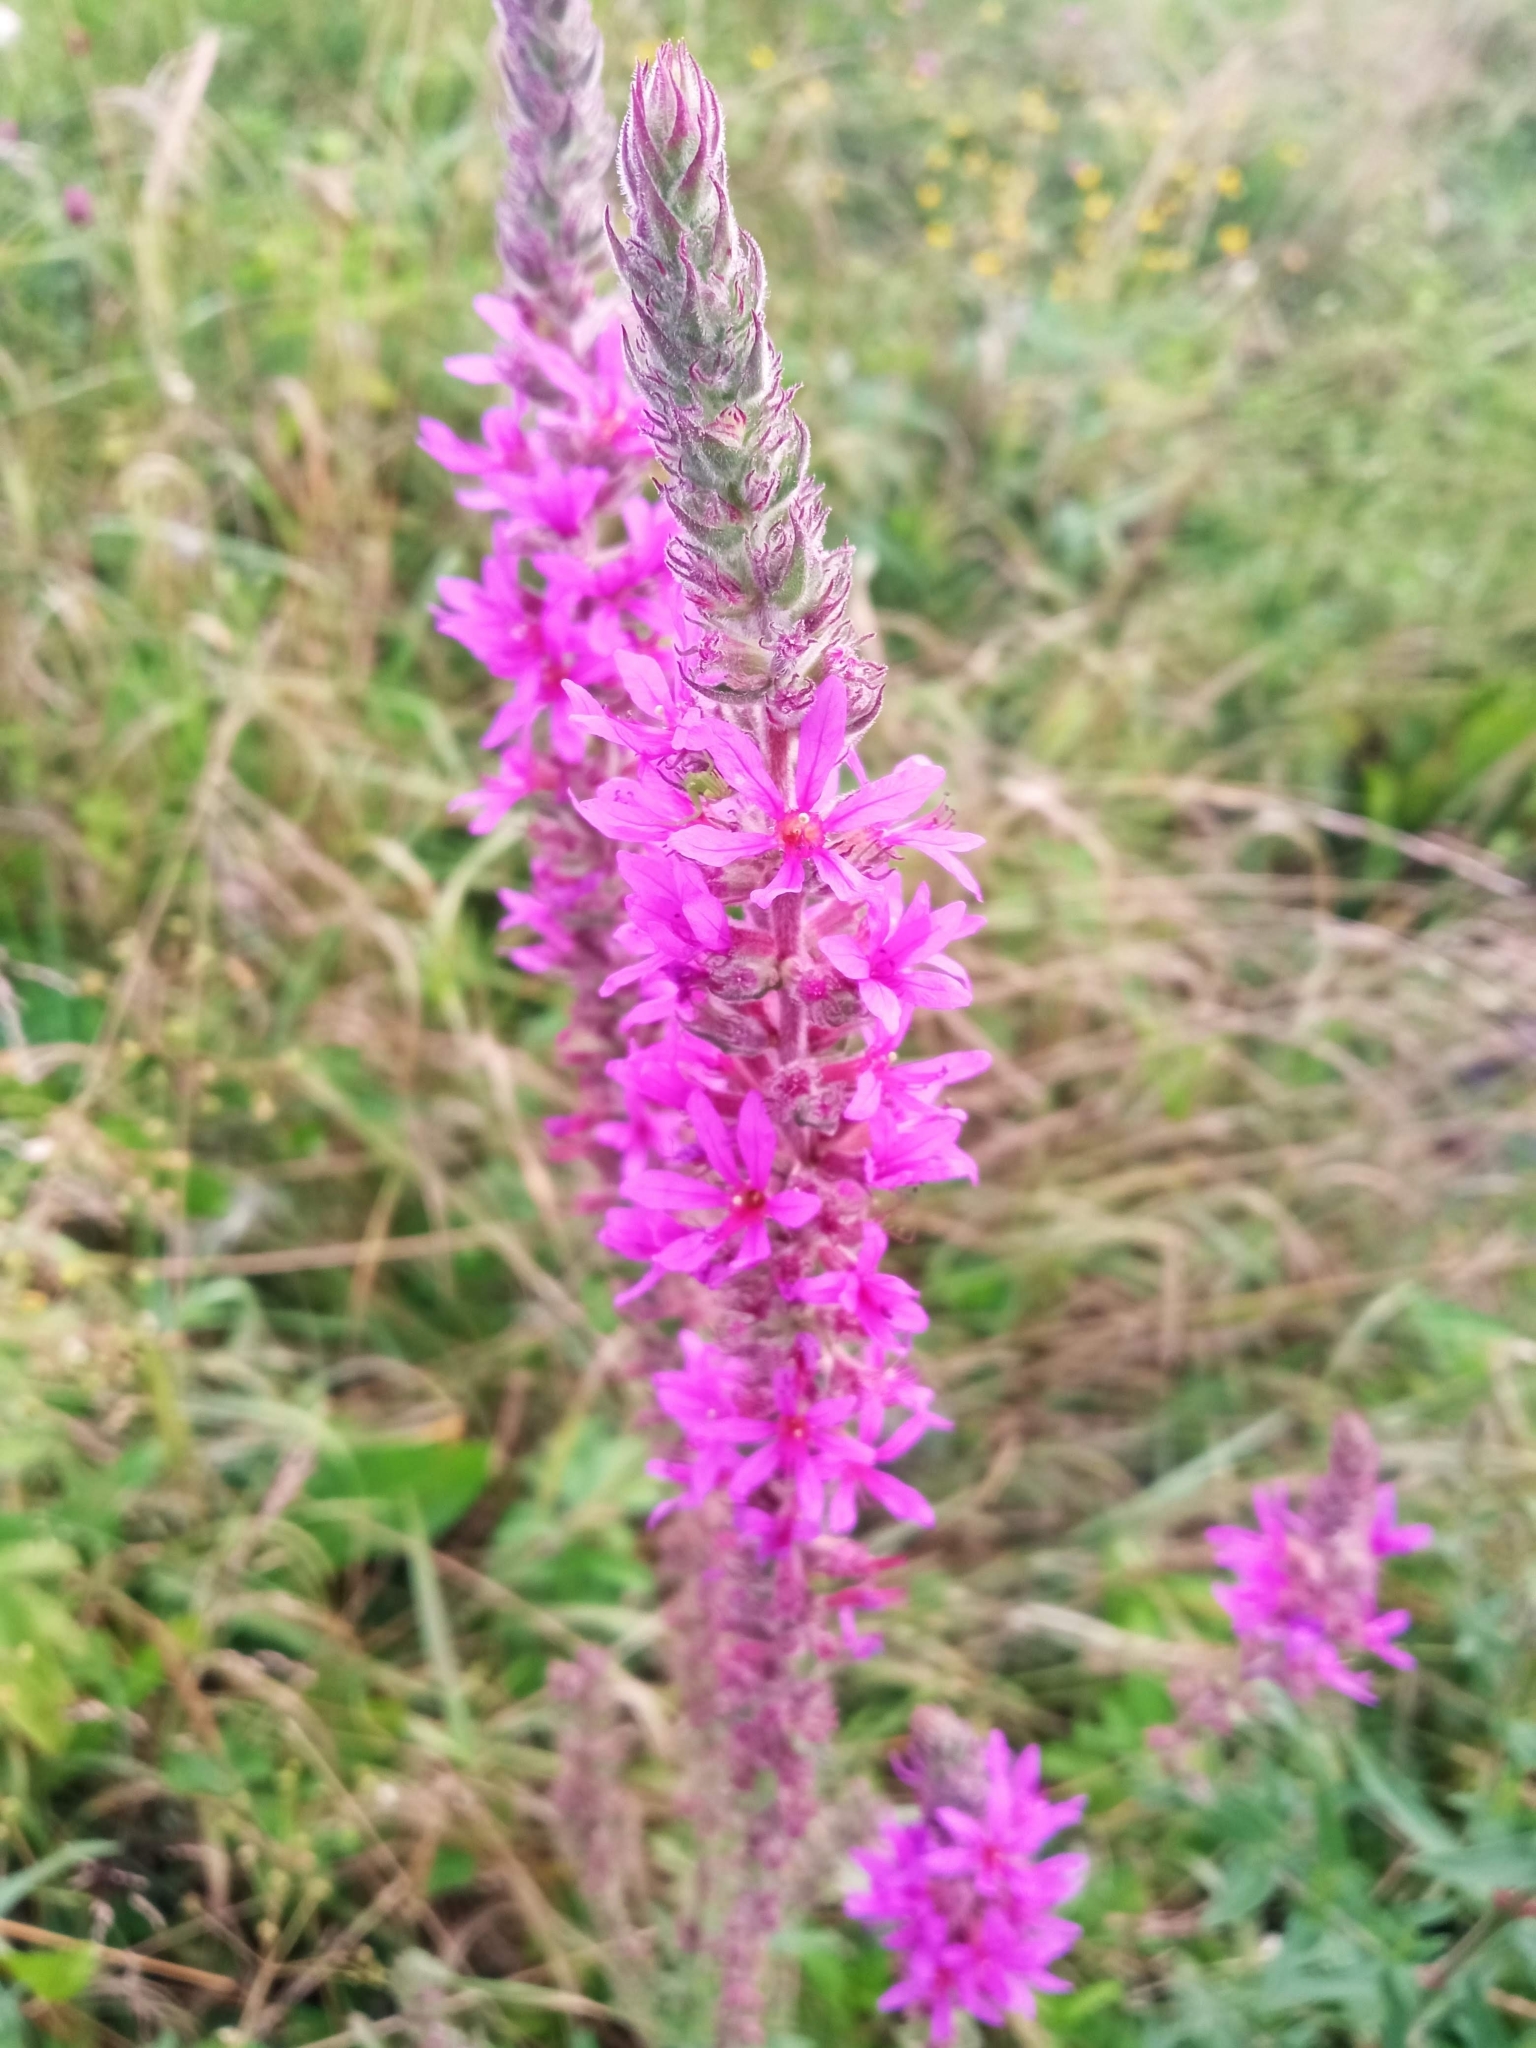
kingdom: Plantae
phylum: Tracheophyta
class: Magnoliopsida
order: Myrtales
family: Lythraceae
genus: Lythrum
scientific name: Lythrum salicaria
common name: Purple loosestrife
